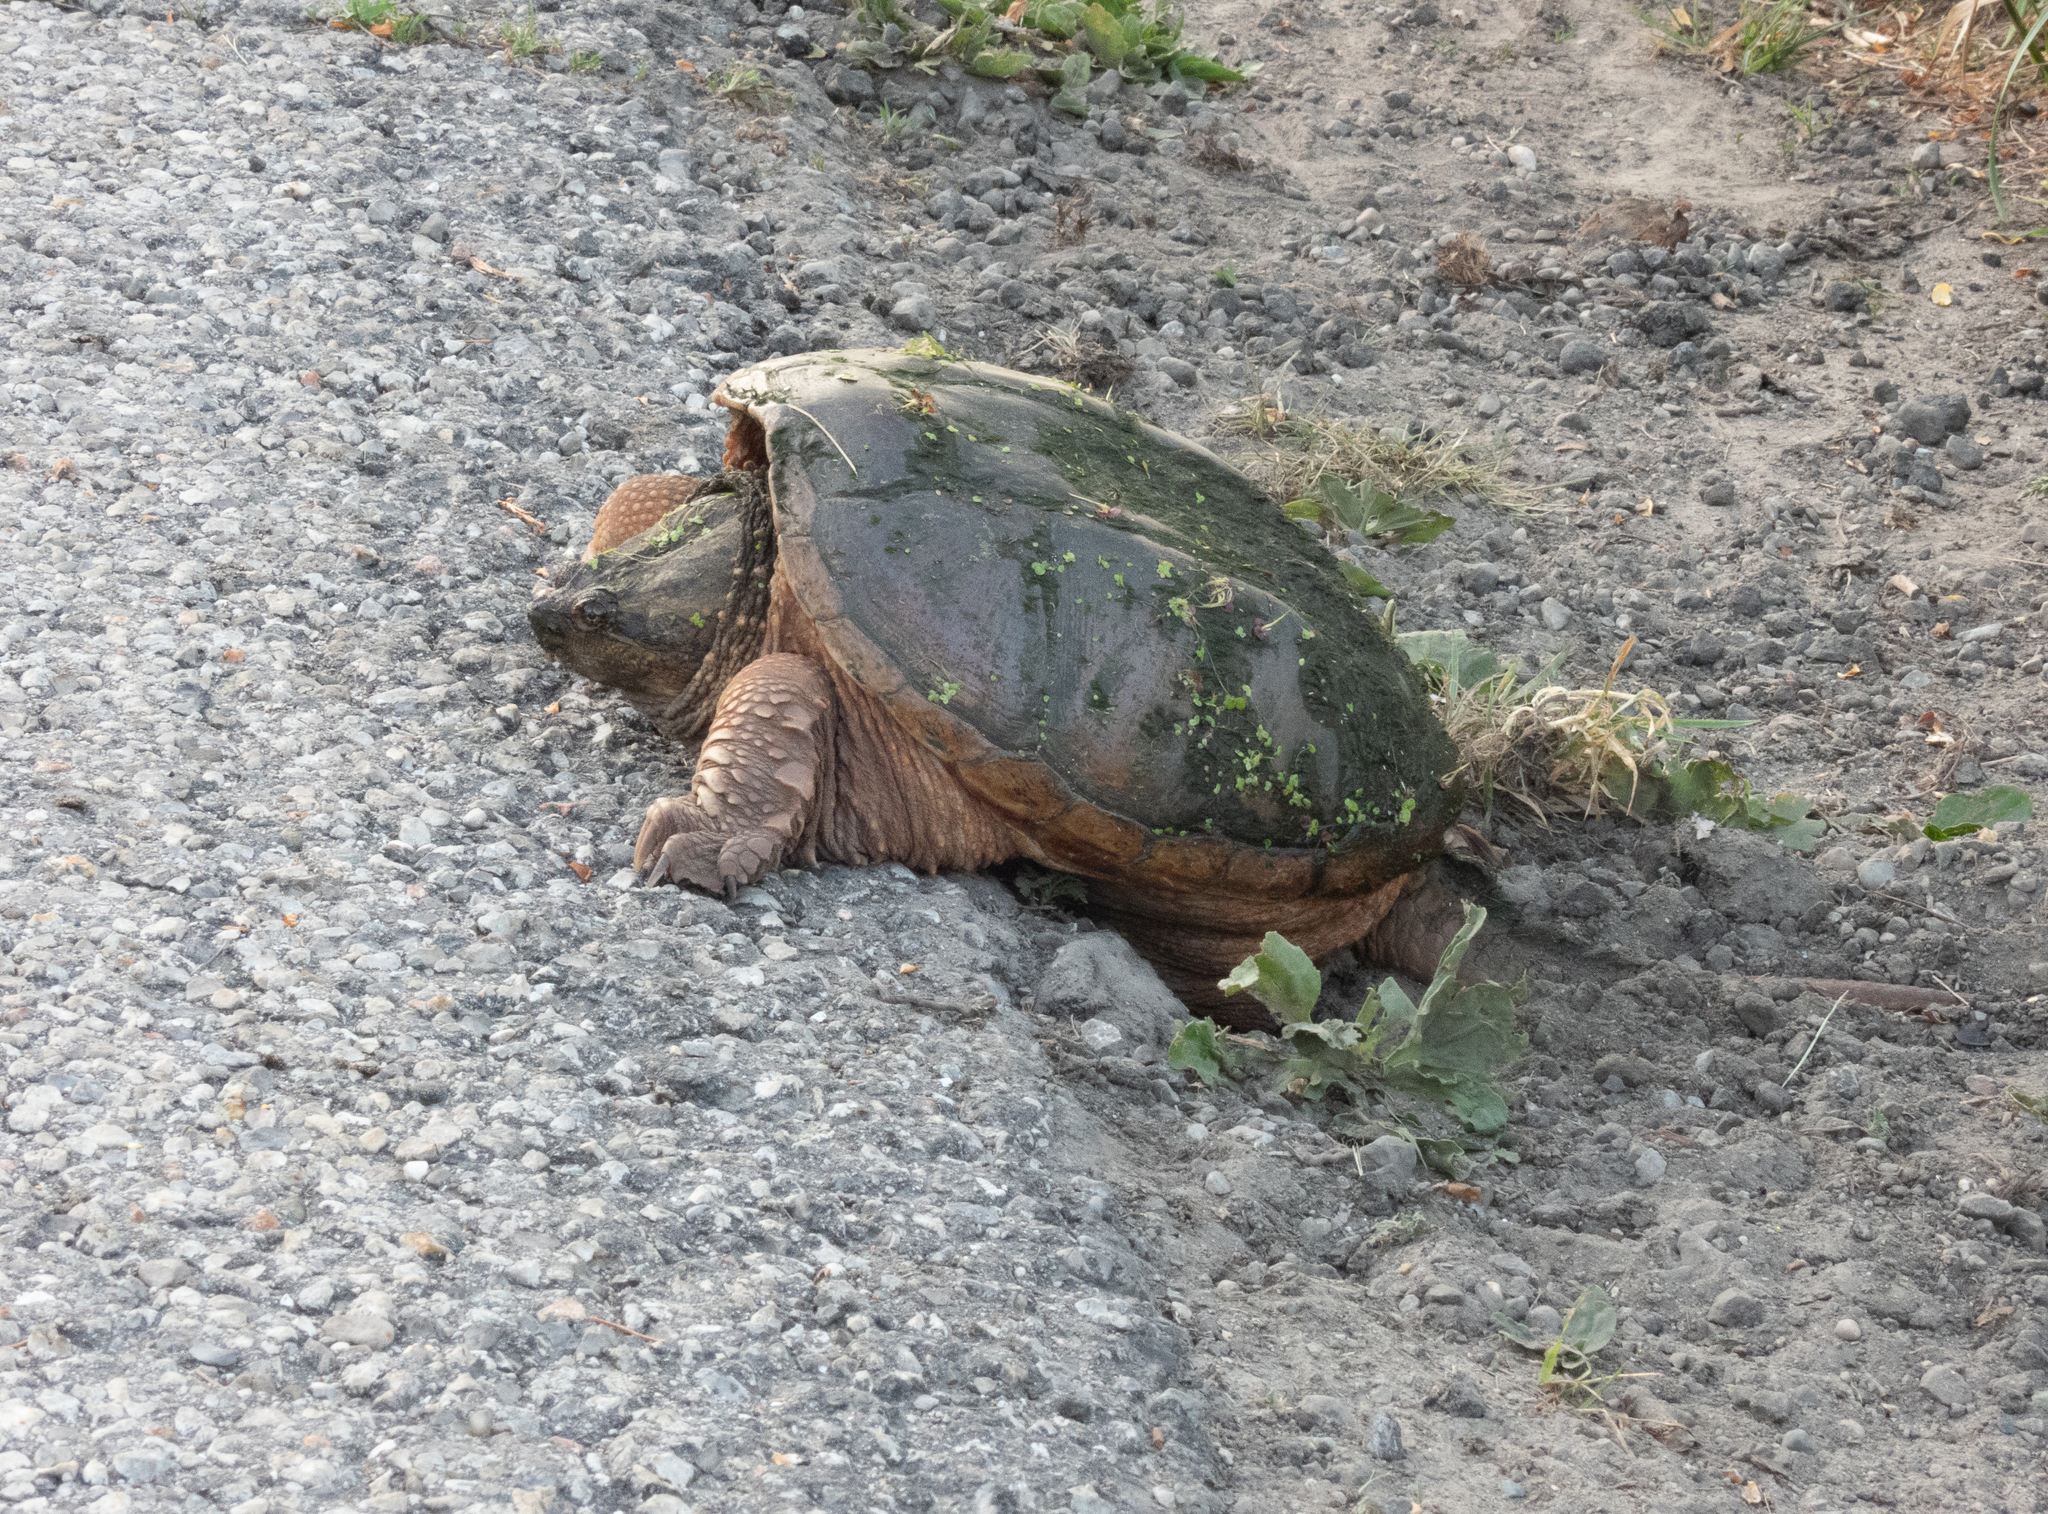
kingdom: Animalia
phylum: Chordata
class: Testudines
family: Chelydridae
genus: Chelydra
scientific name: Chelydra serpentina
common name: Common snapping turtle
